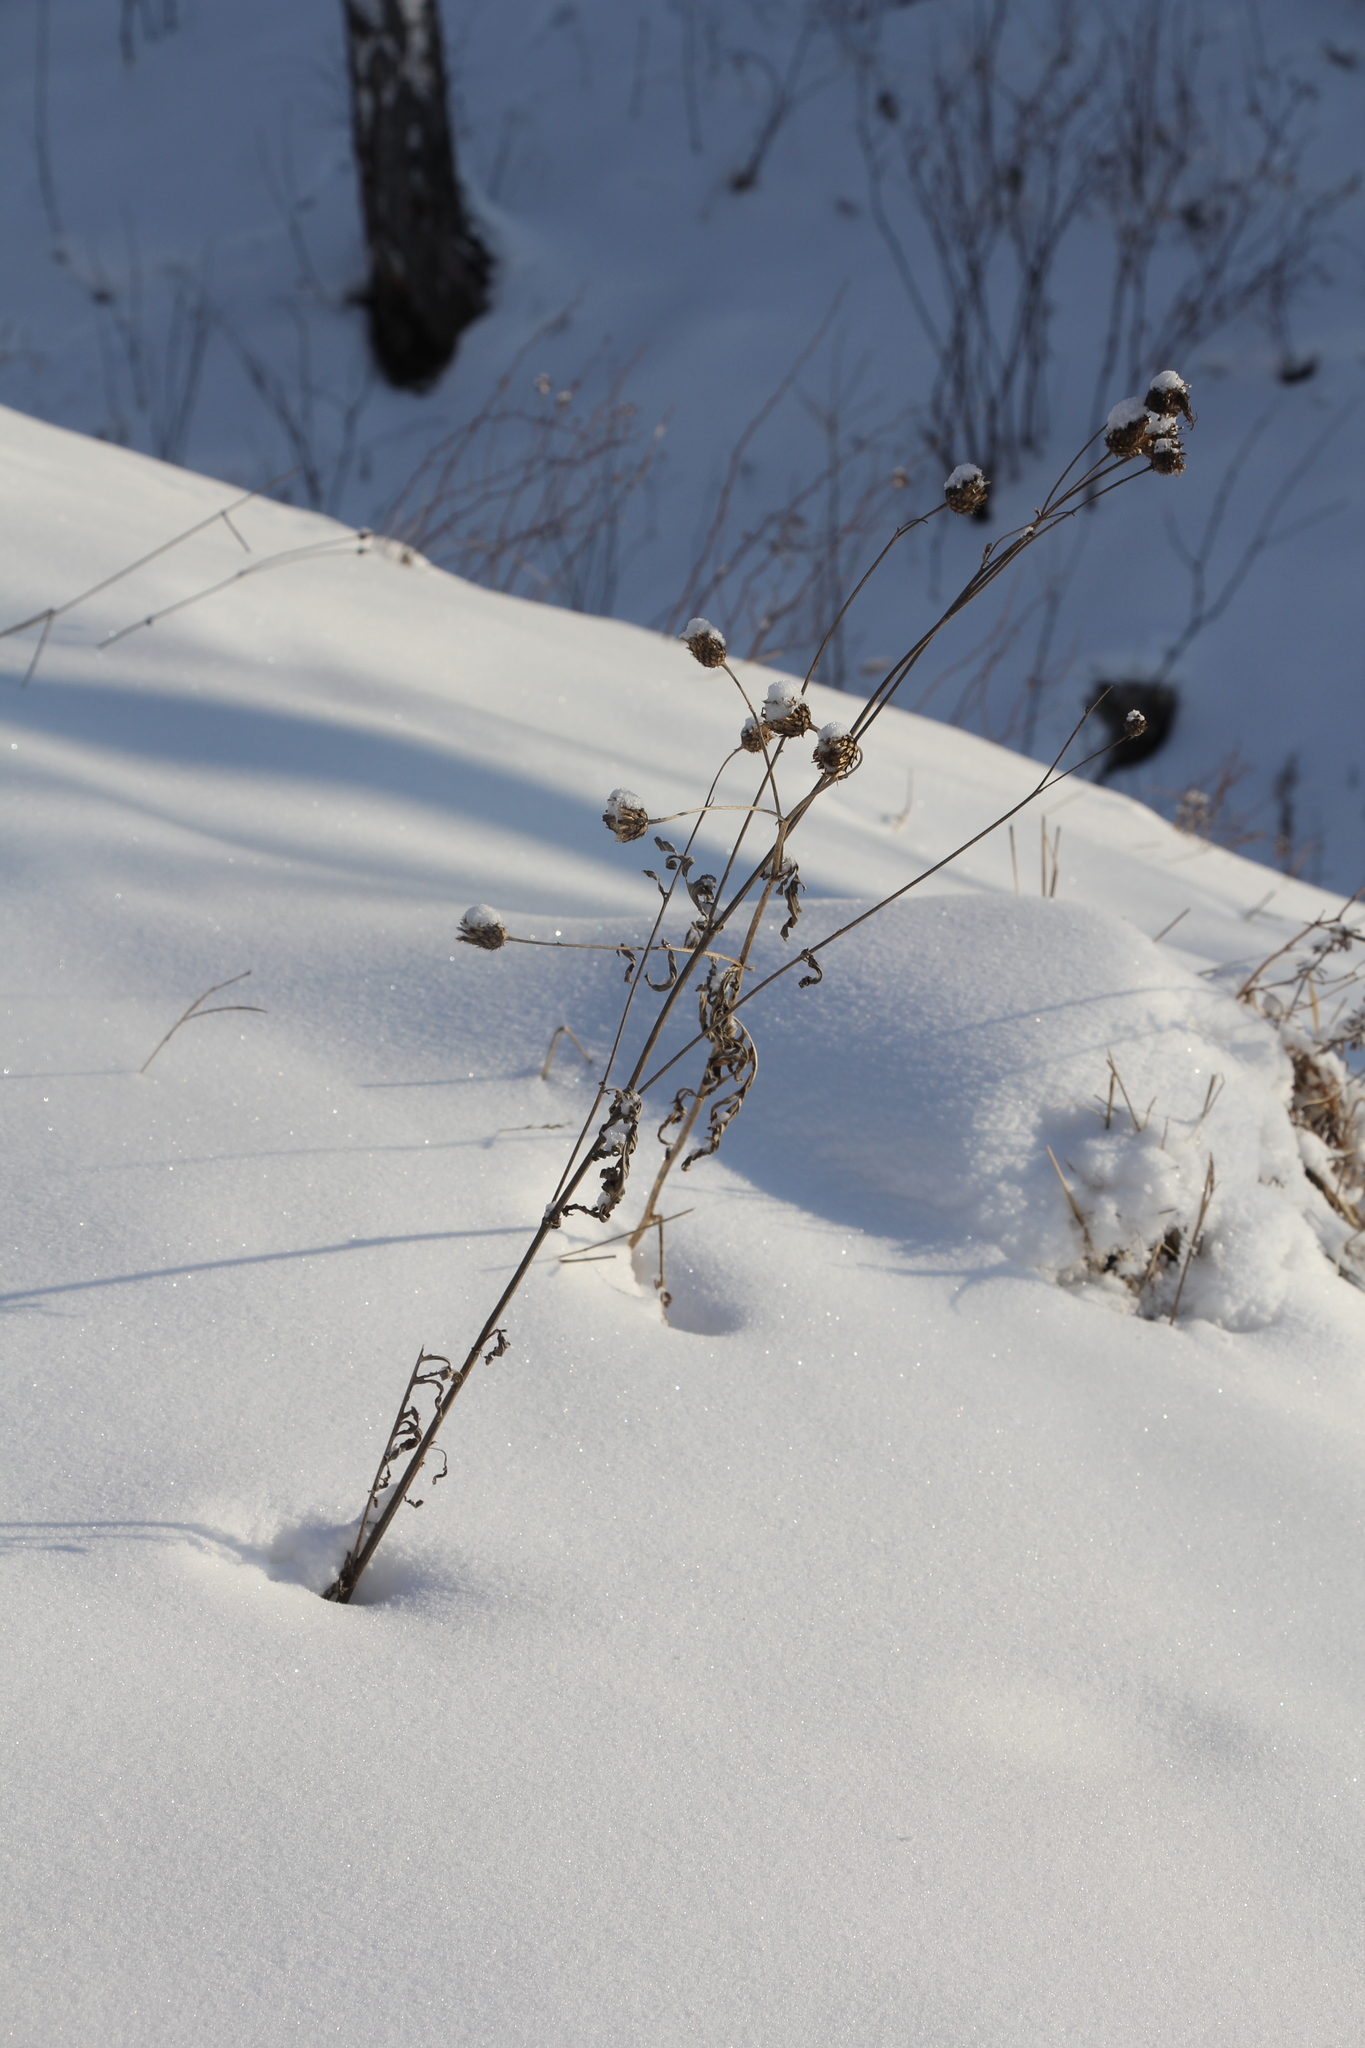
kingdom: Plantae
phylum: Tracheophyta
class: Magnoliopsida
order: Asterales
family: Asteraceae
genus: Centaurea
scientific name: Centaurea scabiosa
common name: Greater knapweed
